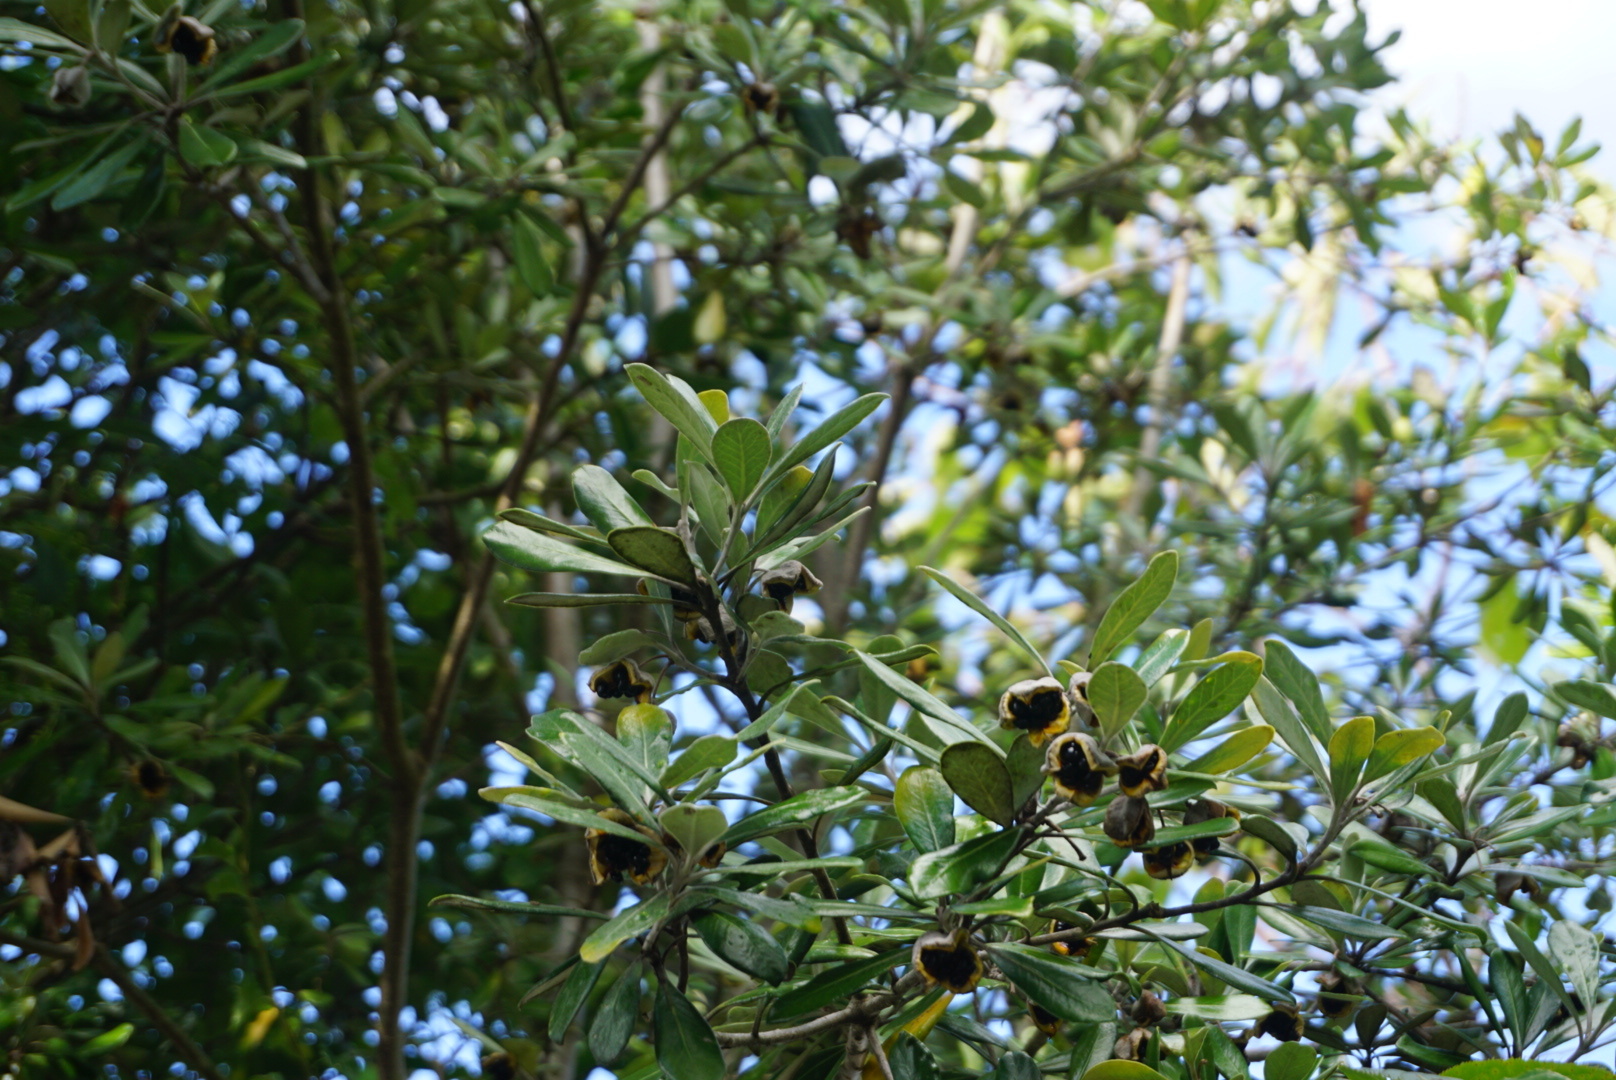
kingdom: Plantae
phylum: Tracheophyta
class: Magnoliopsida
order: Apiales
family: Pittosporaceae
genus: Pittosporum
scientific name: Pittosporum crassifolium
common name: Karo
